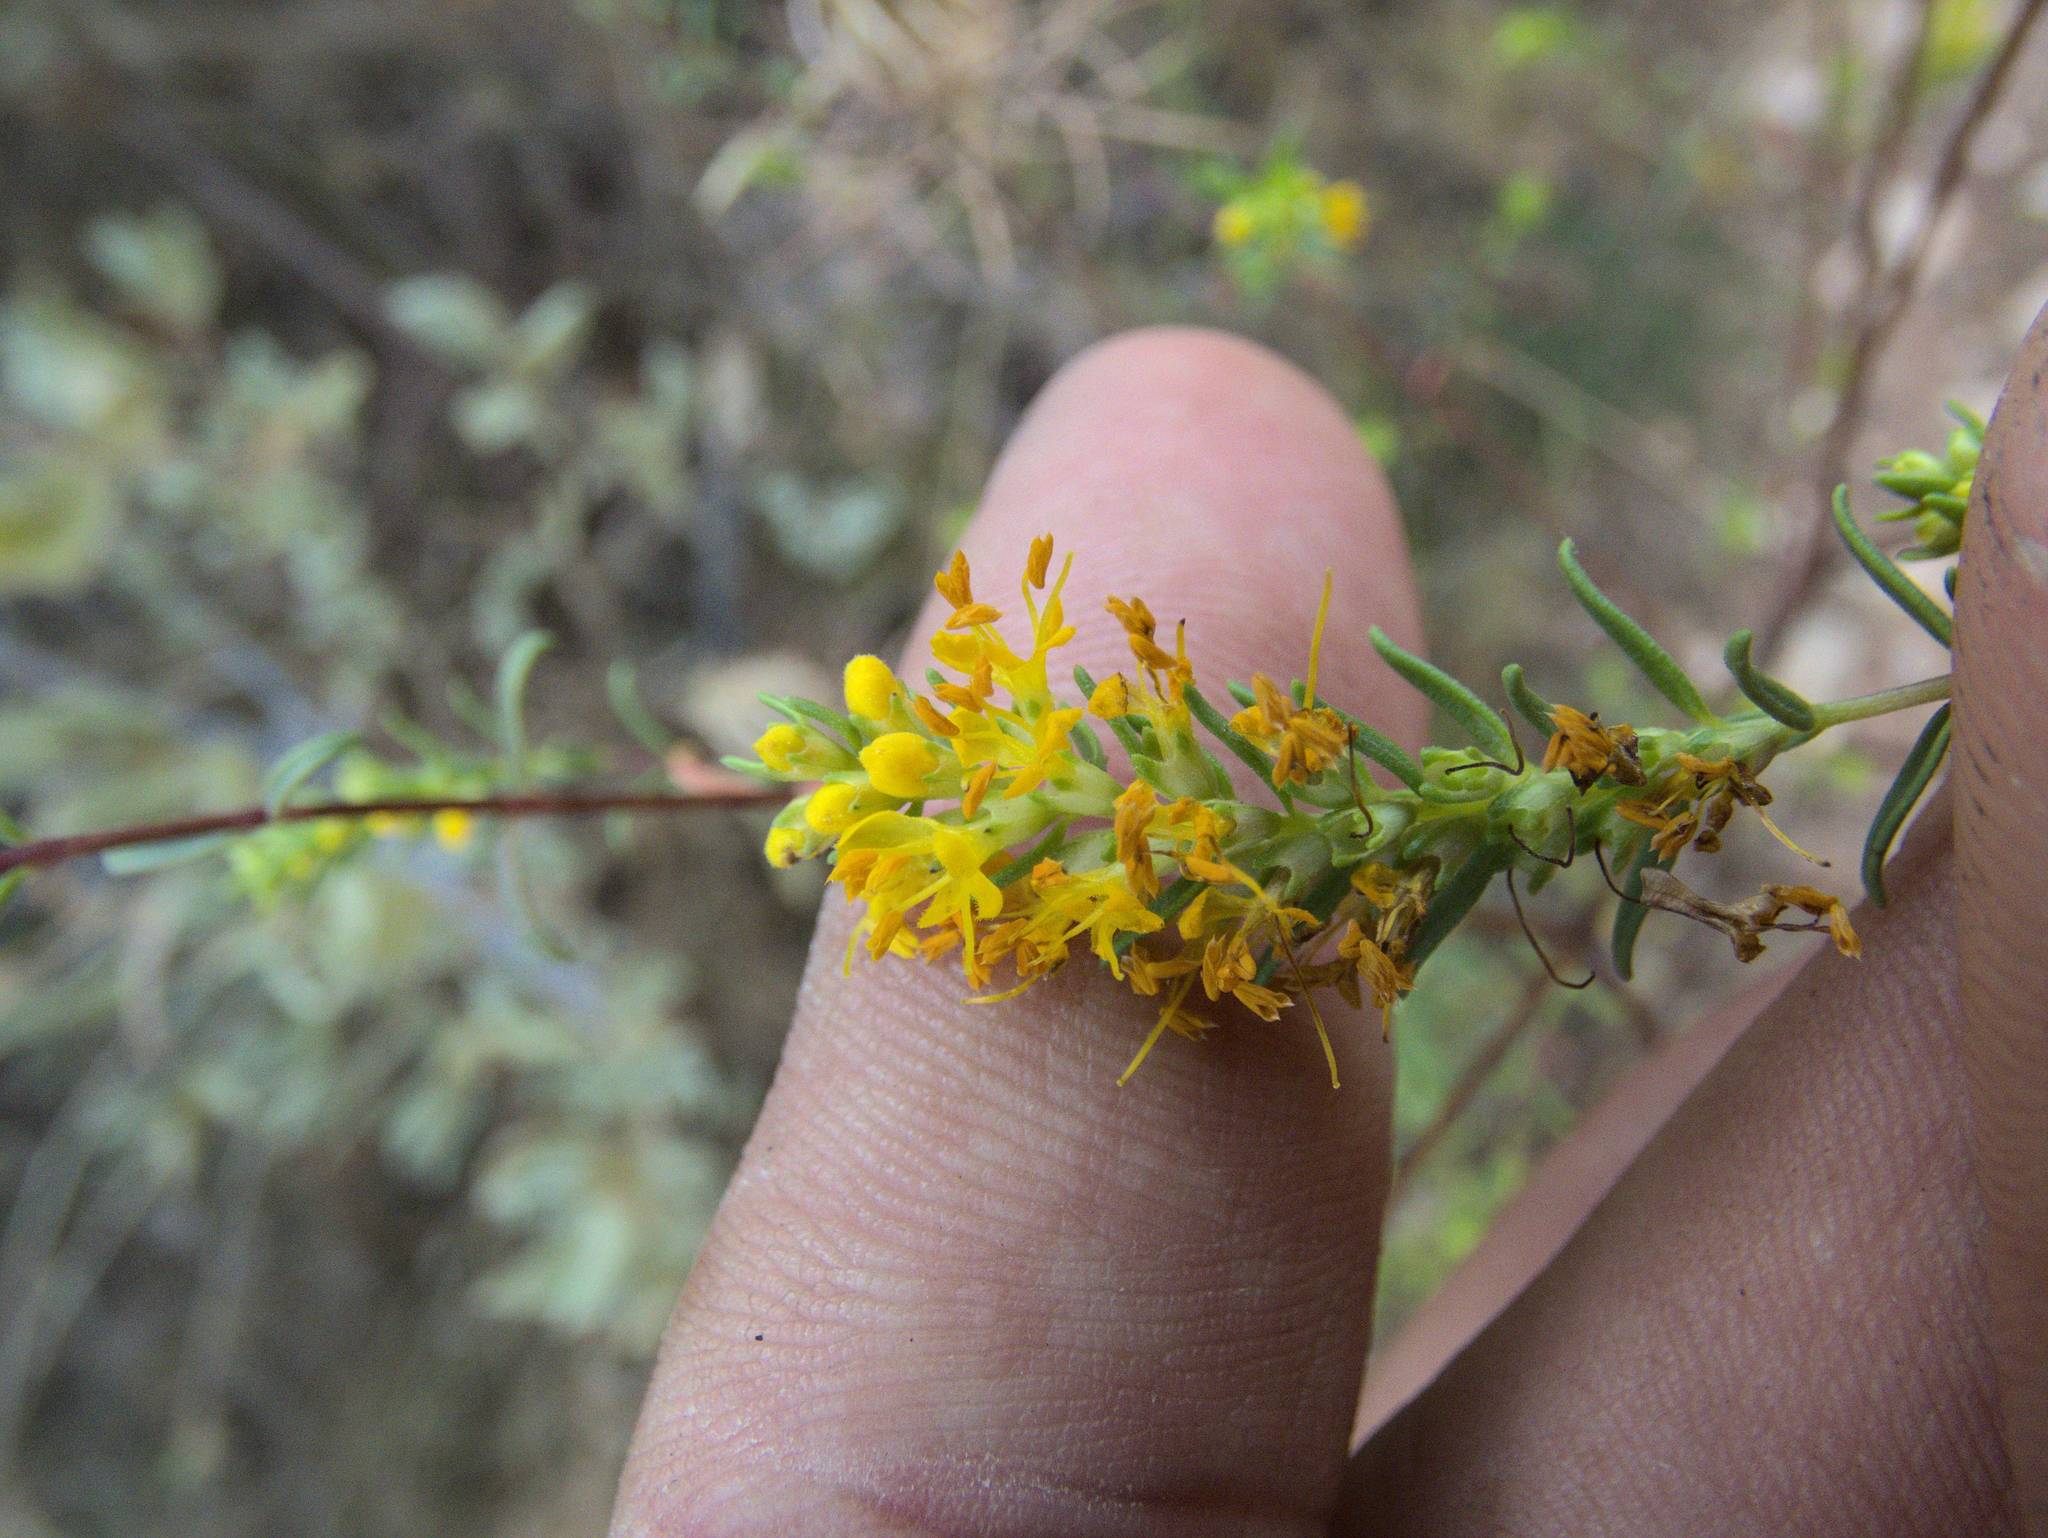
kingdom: Plantae
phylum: Tracheophyta
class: Magnoliopsida
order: Lamiales
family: Orobanchaceae
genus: Odontites
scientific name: Odontites luteus
